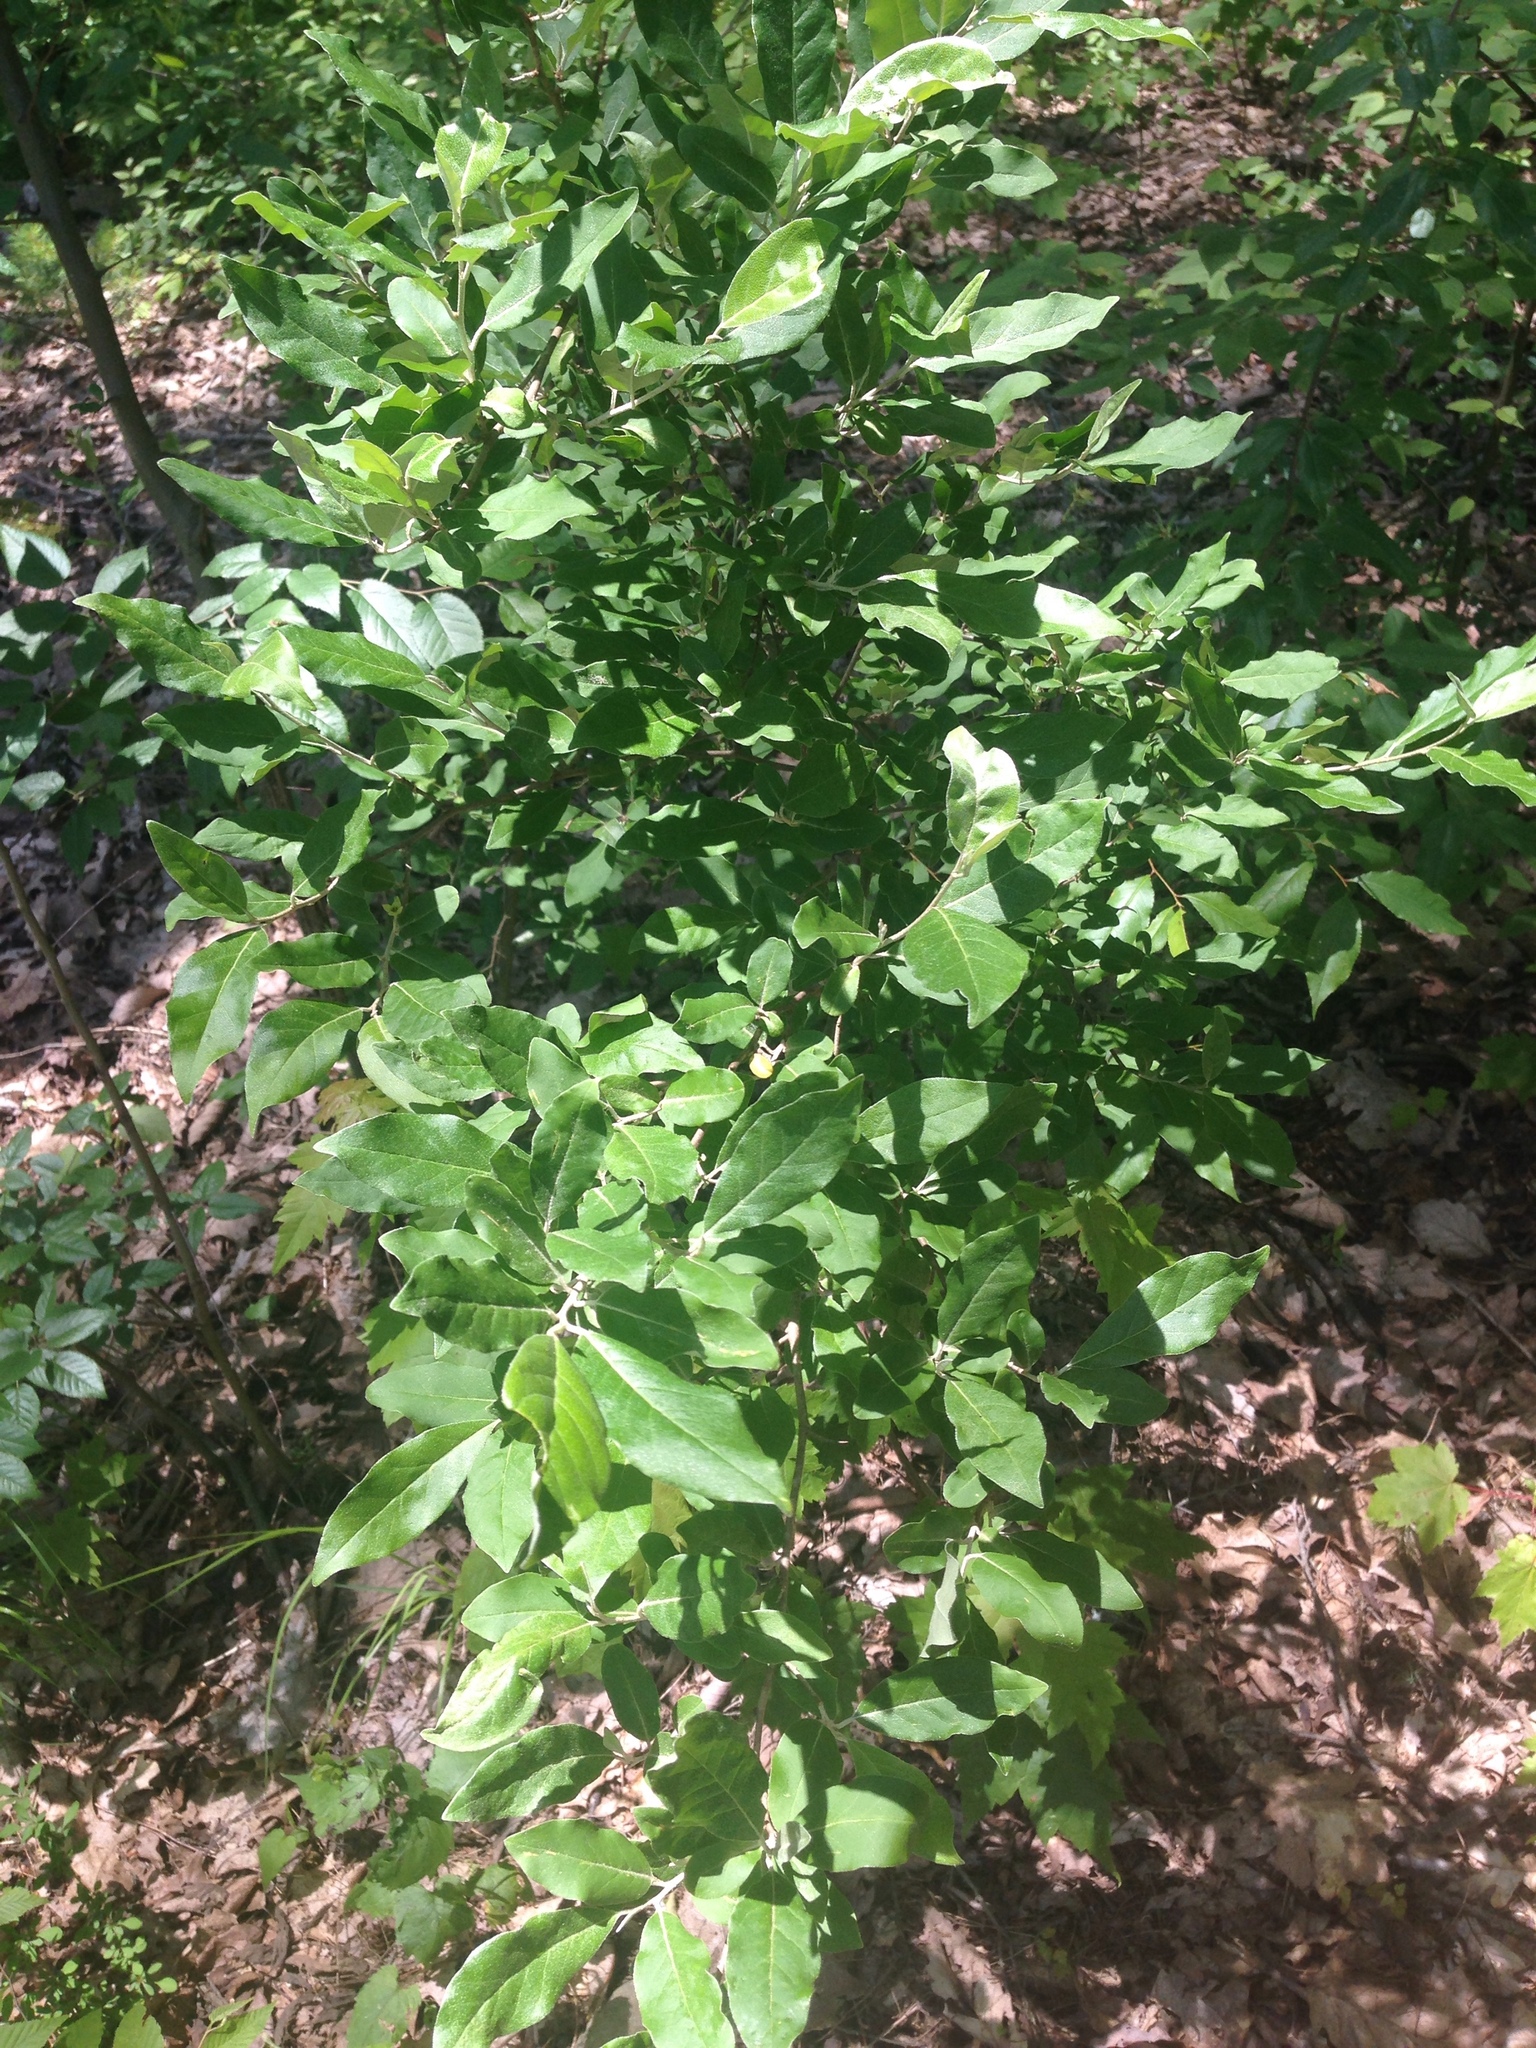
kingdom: Plantae
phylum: Tracheophyta
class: Magnoliopsida
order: Rosales
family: Elaeagnaceae
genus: Elaeagnus
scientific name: Elaeagnus umbellata
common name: Autumn olive
